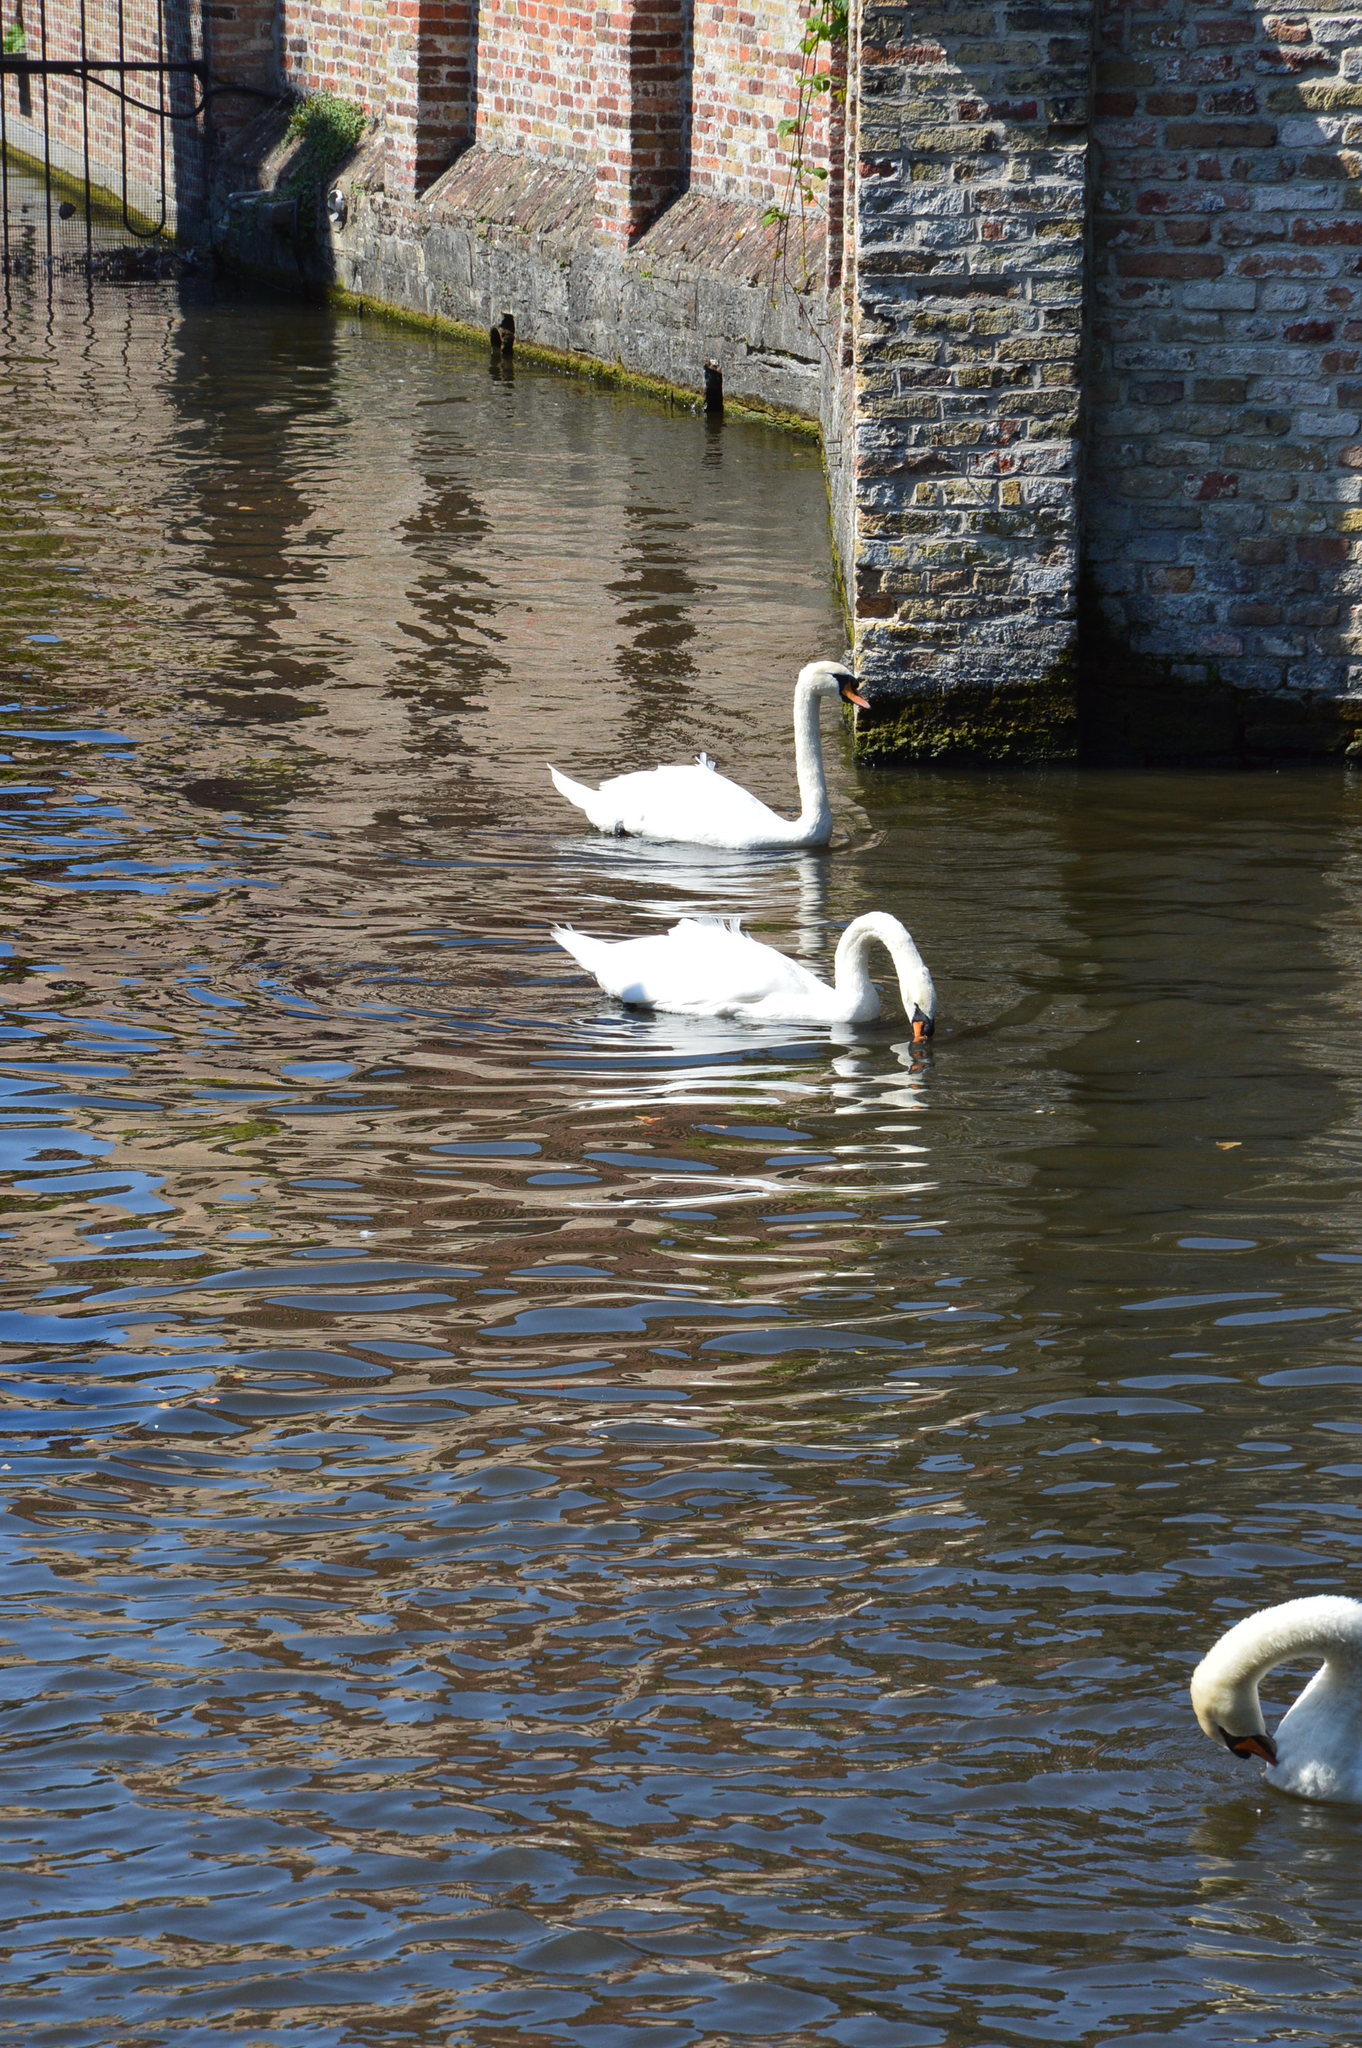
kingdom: Animalia
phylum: Chordata
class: Aves
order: Anseriformes
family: Anatidae
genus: Cygnus
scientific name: Cygnus olor
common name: Mute swan
